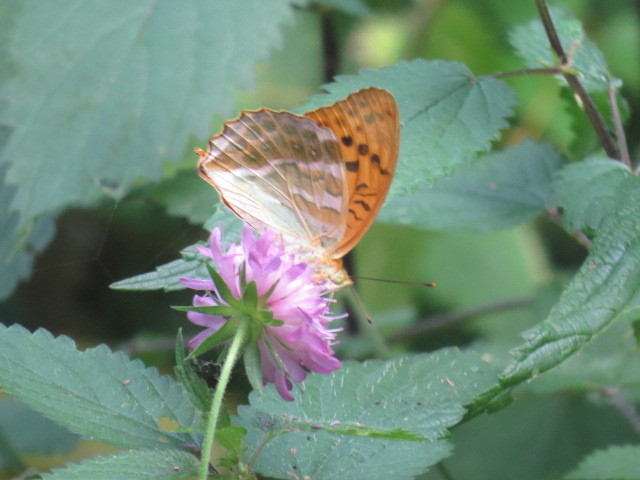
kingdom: Animalia
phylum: Arthropoda
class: Insecta
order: Lepidoptera
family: Nymphalidae
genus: Argynnis
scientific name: Argynnis paphia
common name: Silver-washed fritillary
